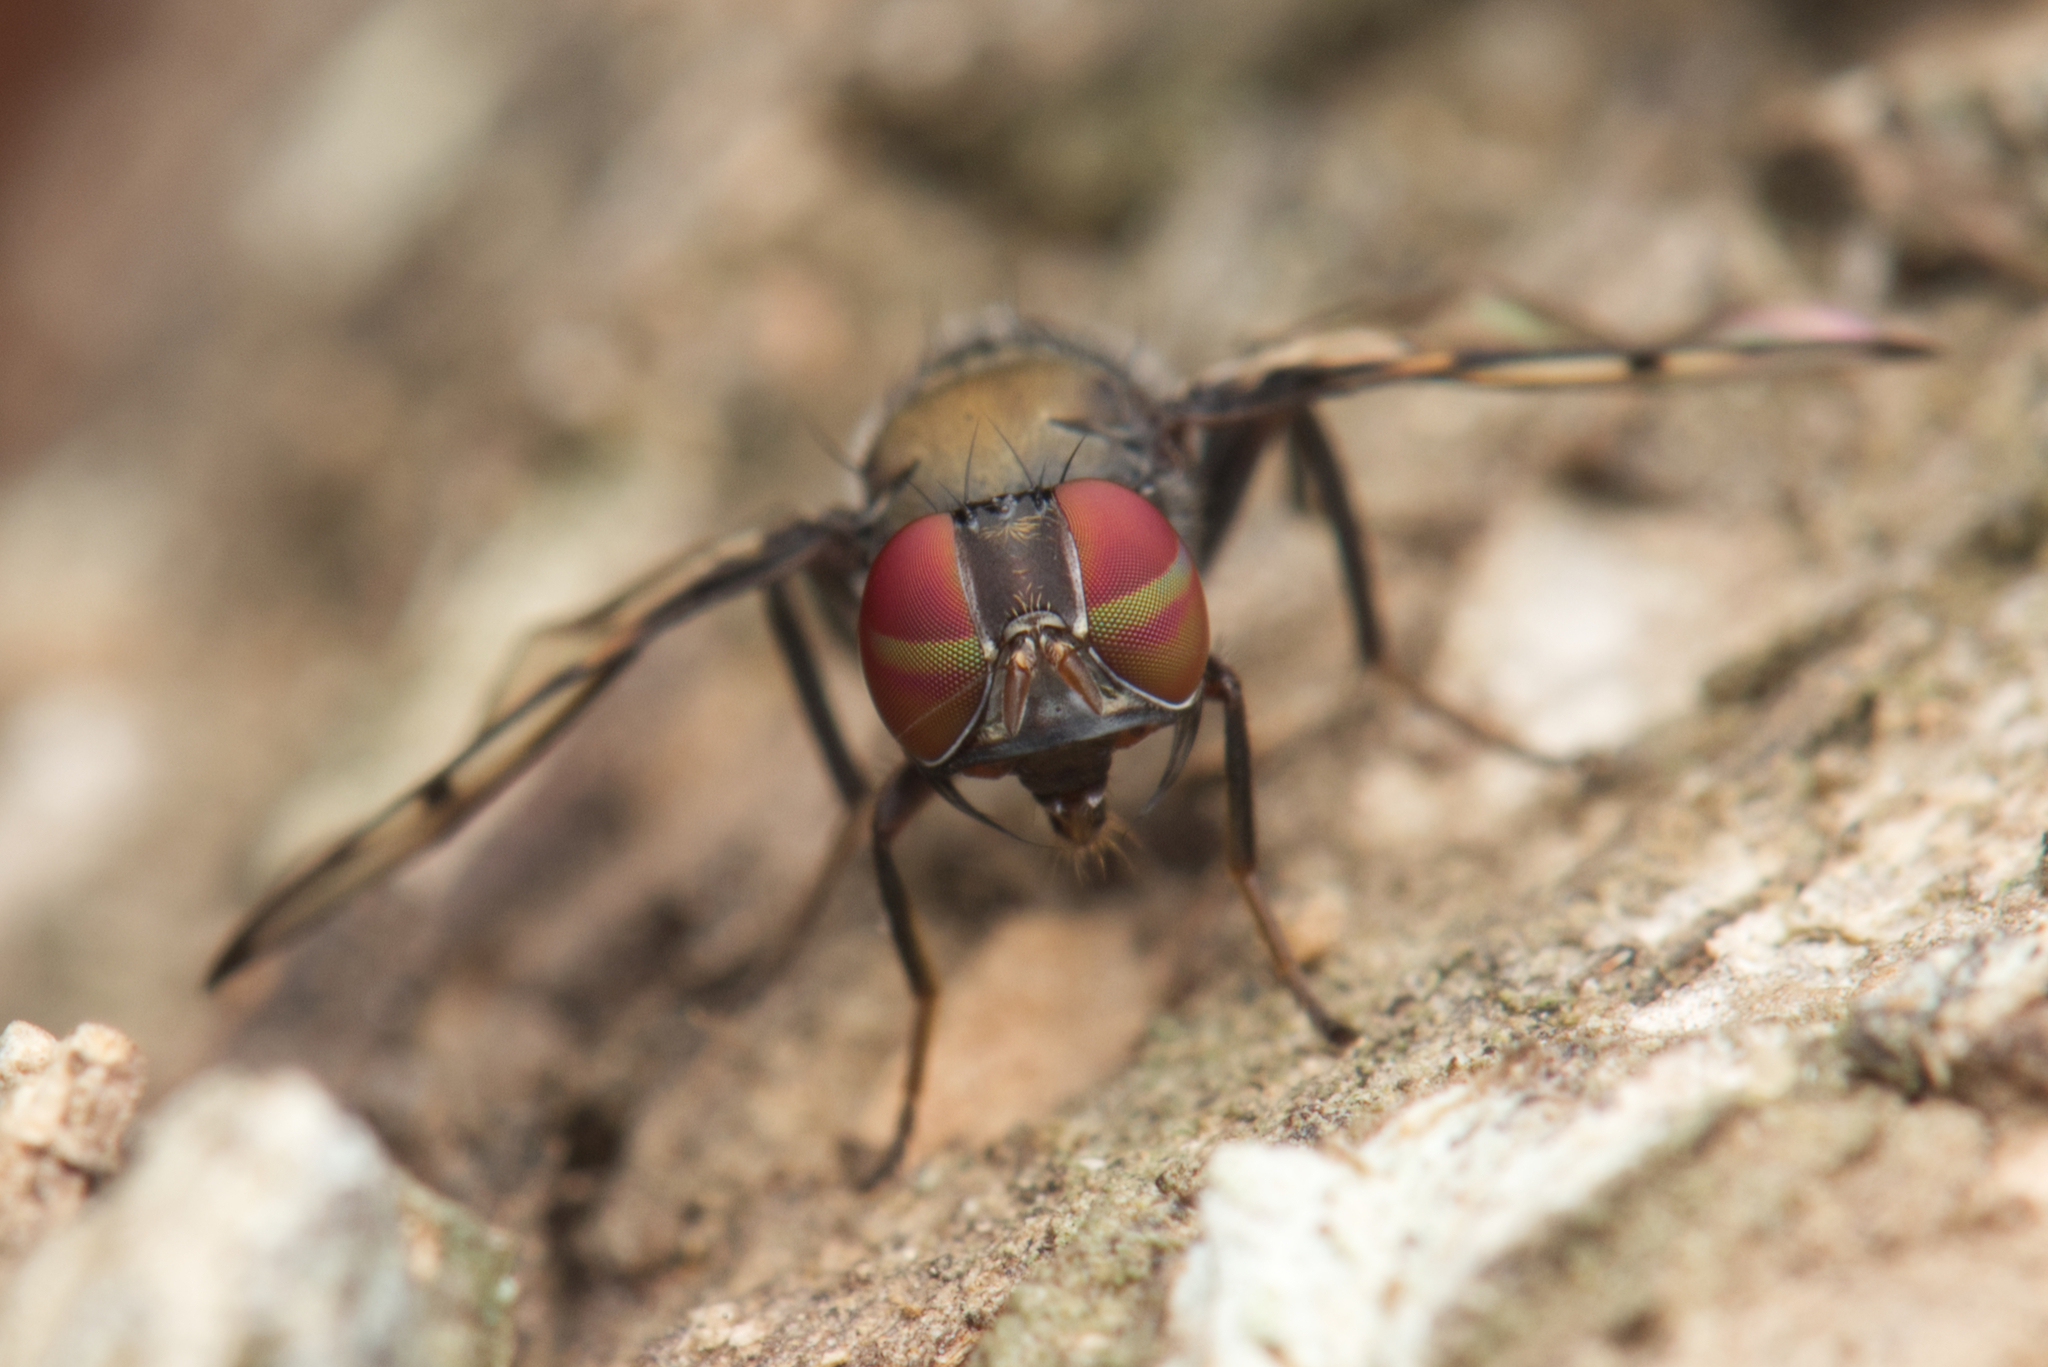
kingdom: Animalia
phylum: Arthropoda
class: Insecta
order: Diptera
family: Platystomatidae
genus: Pogonortalis
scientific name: Pogonortalis doclea
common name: Boatman fly
